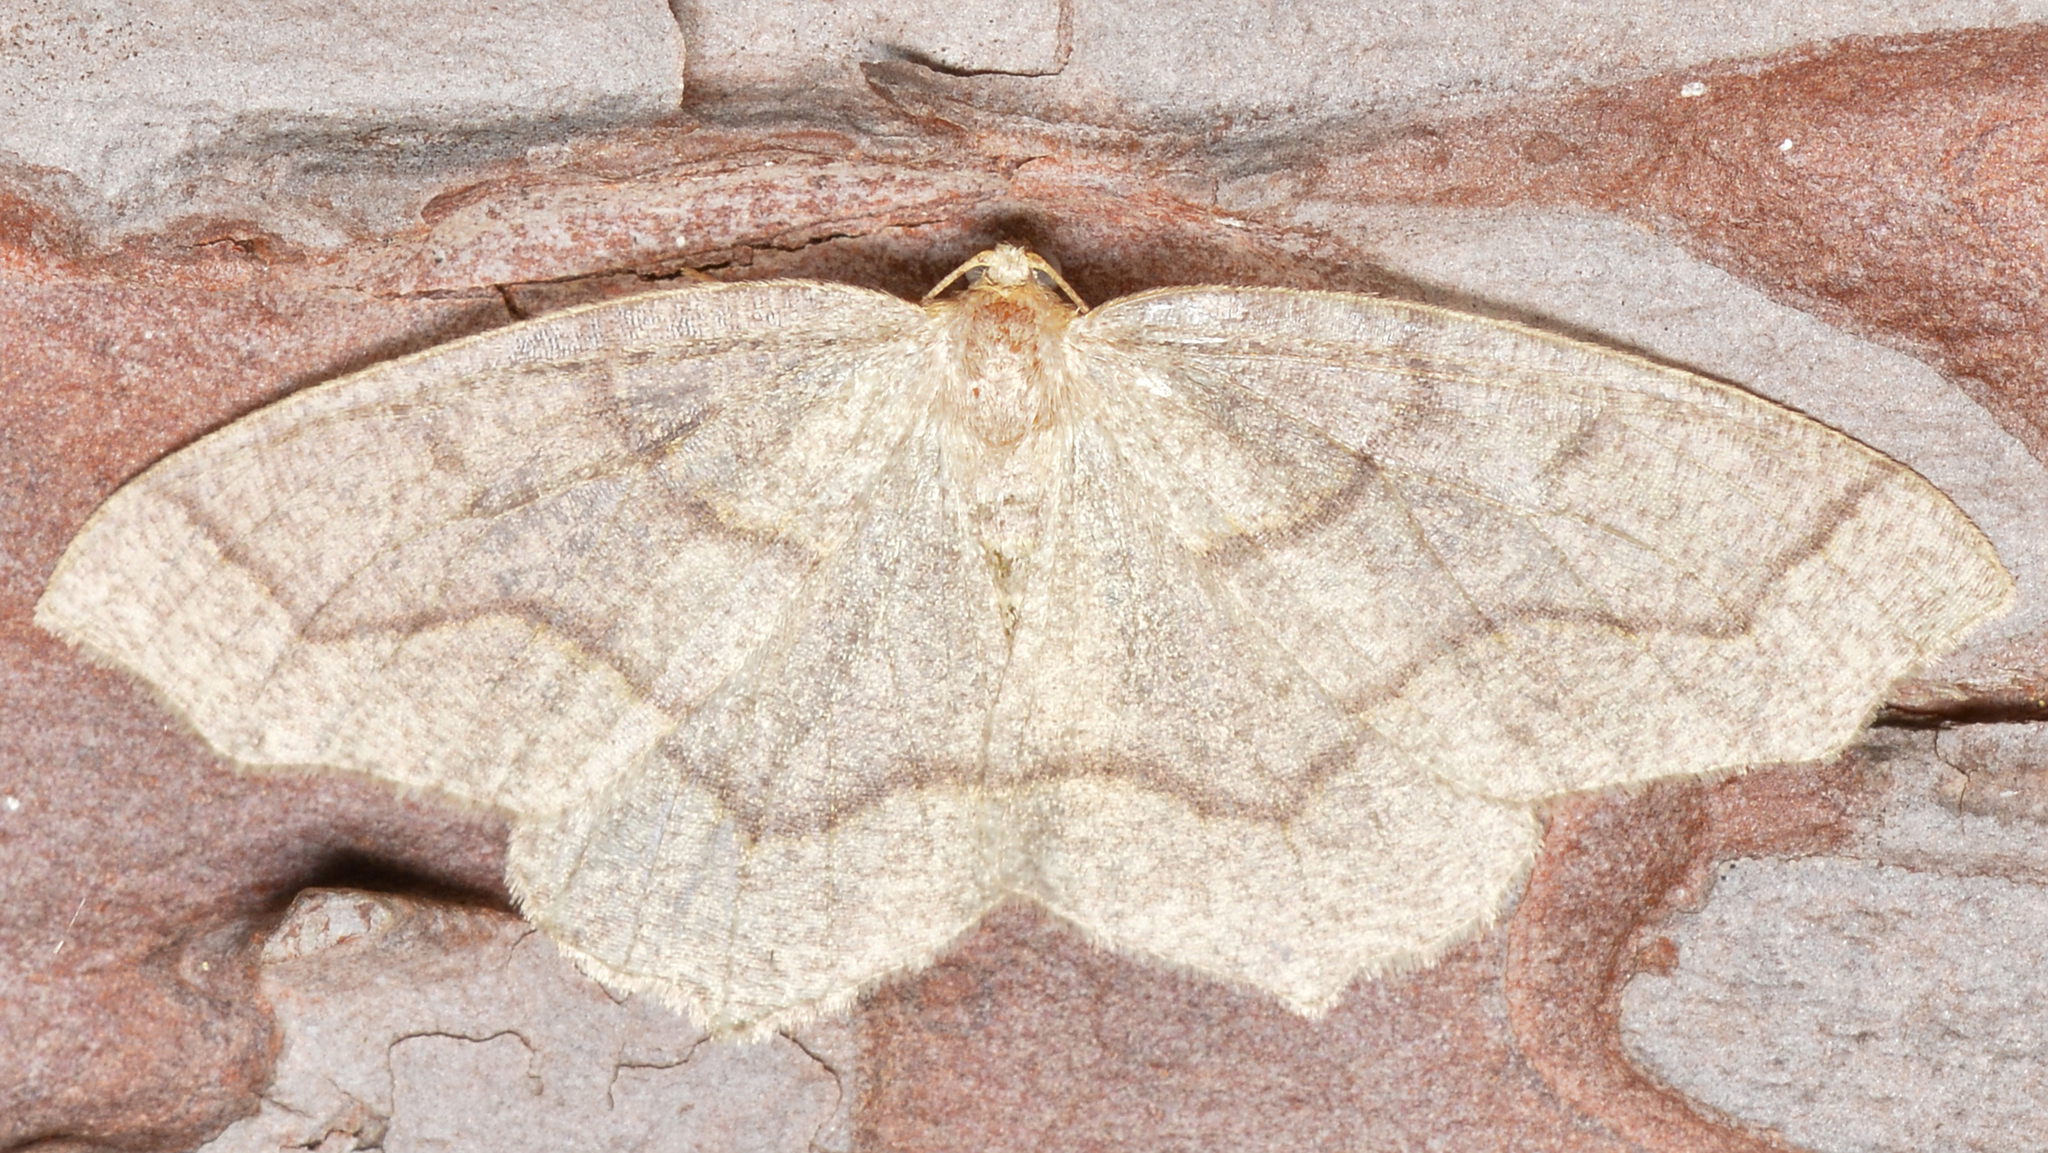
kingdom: Animalia
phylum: Arthropoda
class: Insecta
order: Lepidoptera
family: Geometridae
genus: Lambdina
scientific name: Lambdina fiscellaria
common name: Hemlock looper
